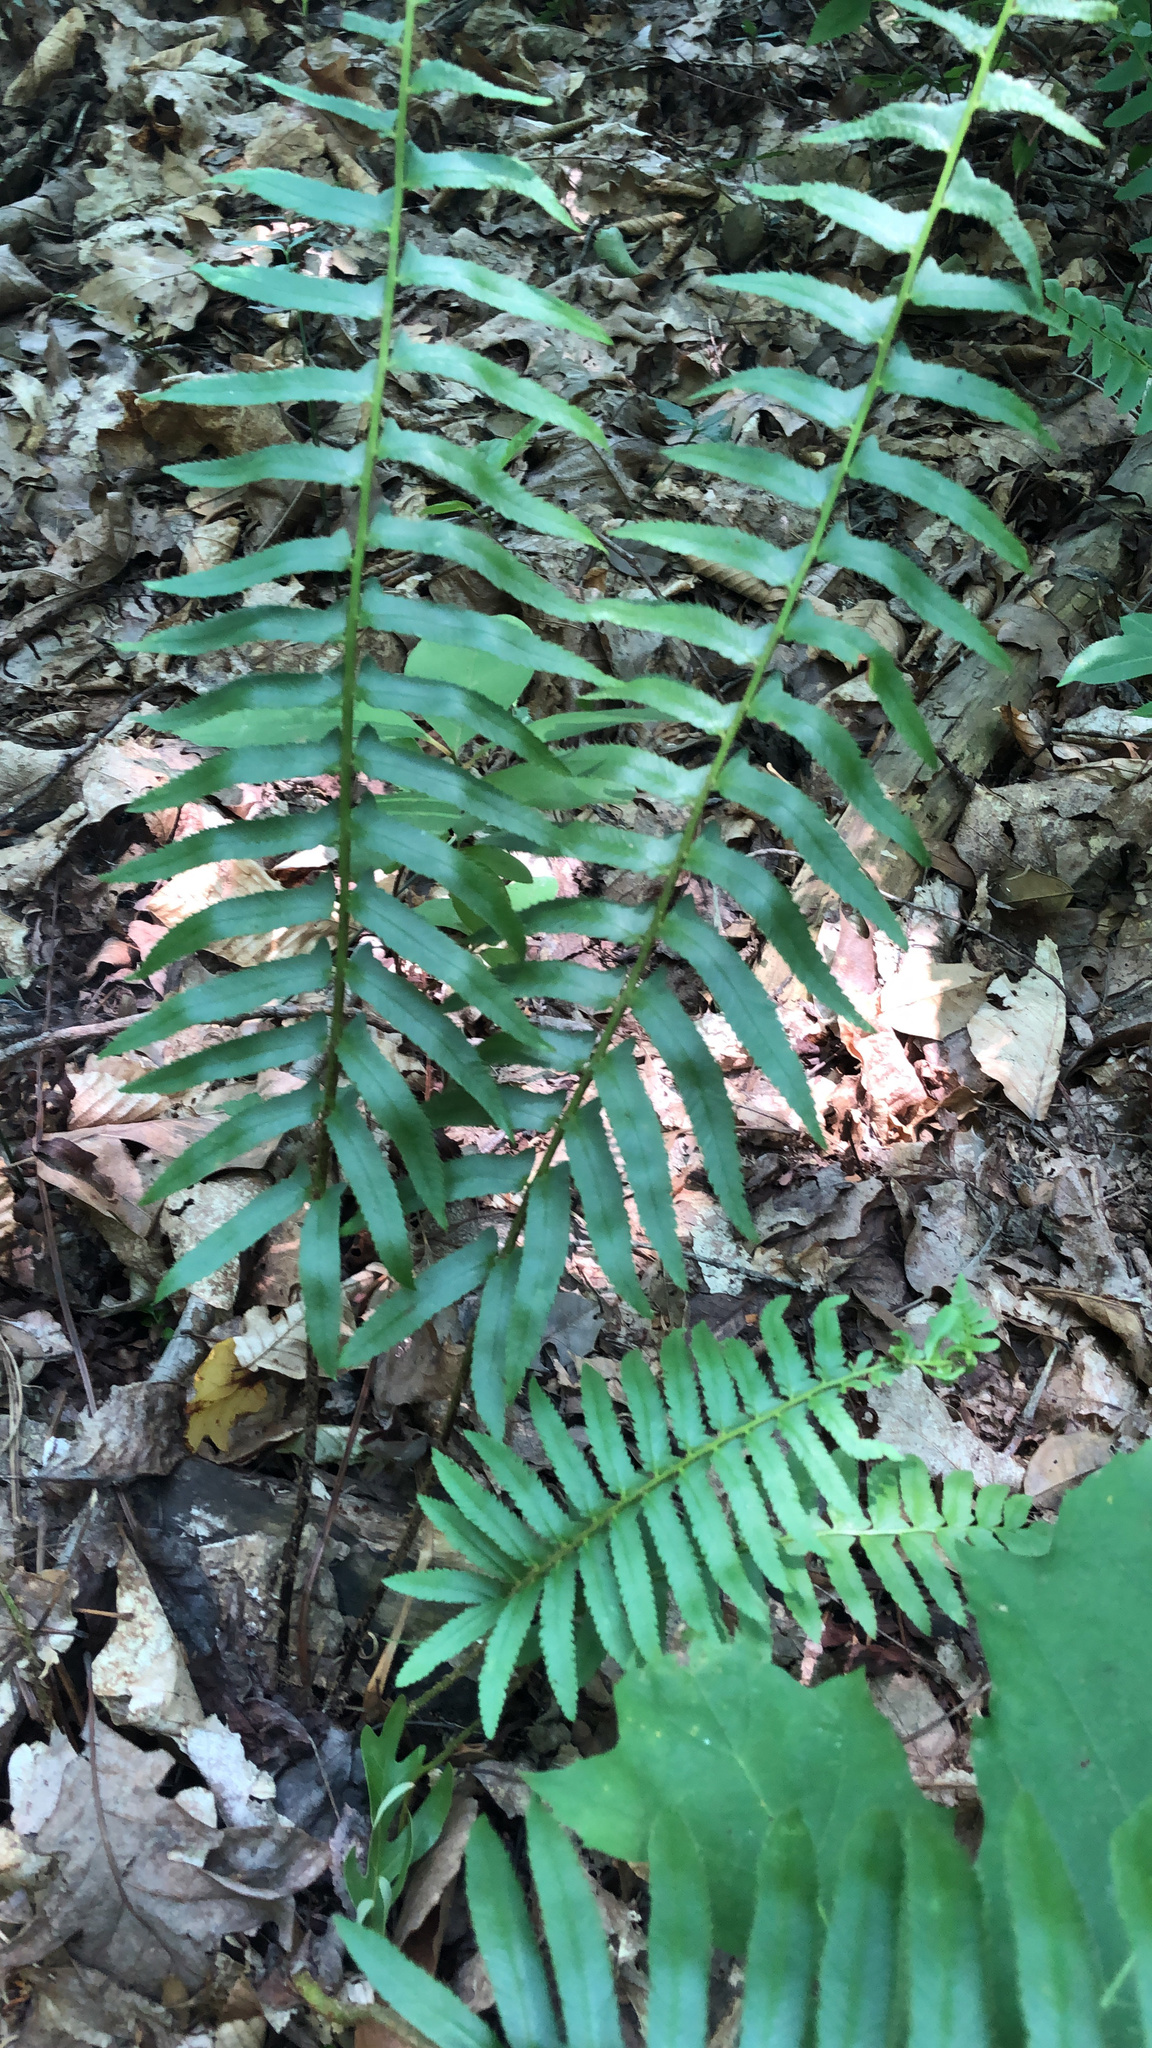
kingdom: Plantae
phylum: Tracheophyta
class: Polypodiopsida
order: Polypodiales
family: Dryopteridaceae
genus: Polystichum
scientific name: Polystichum acrostichoides
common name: Christmas fern
